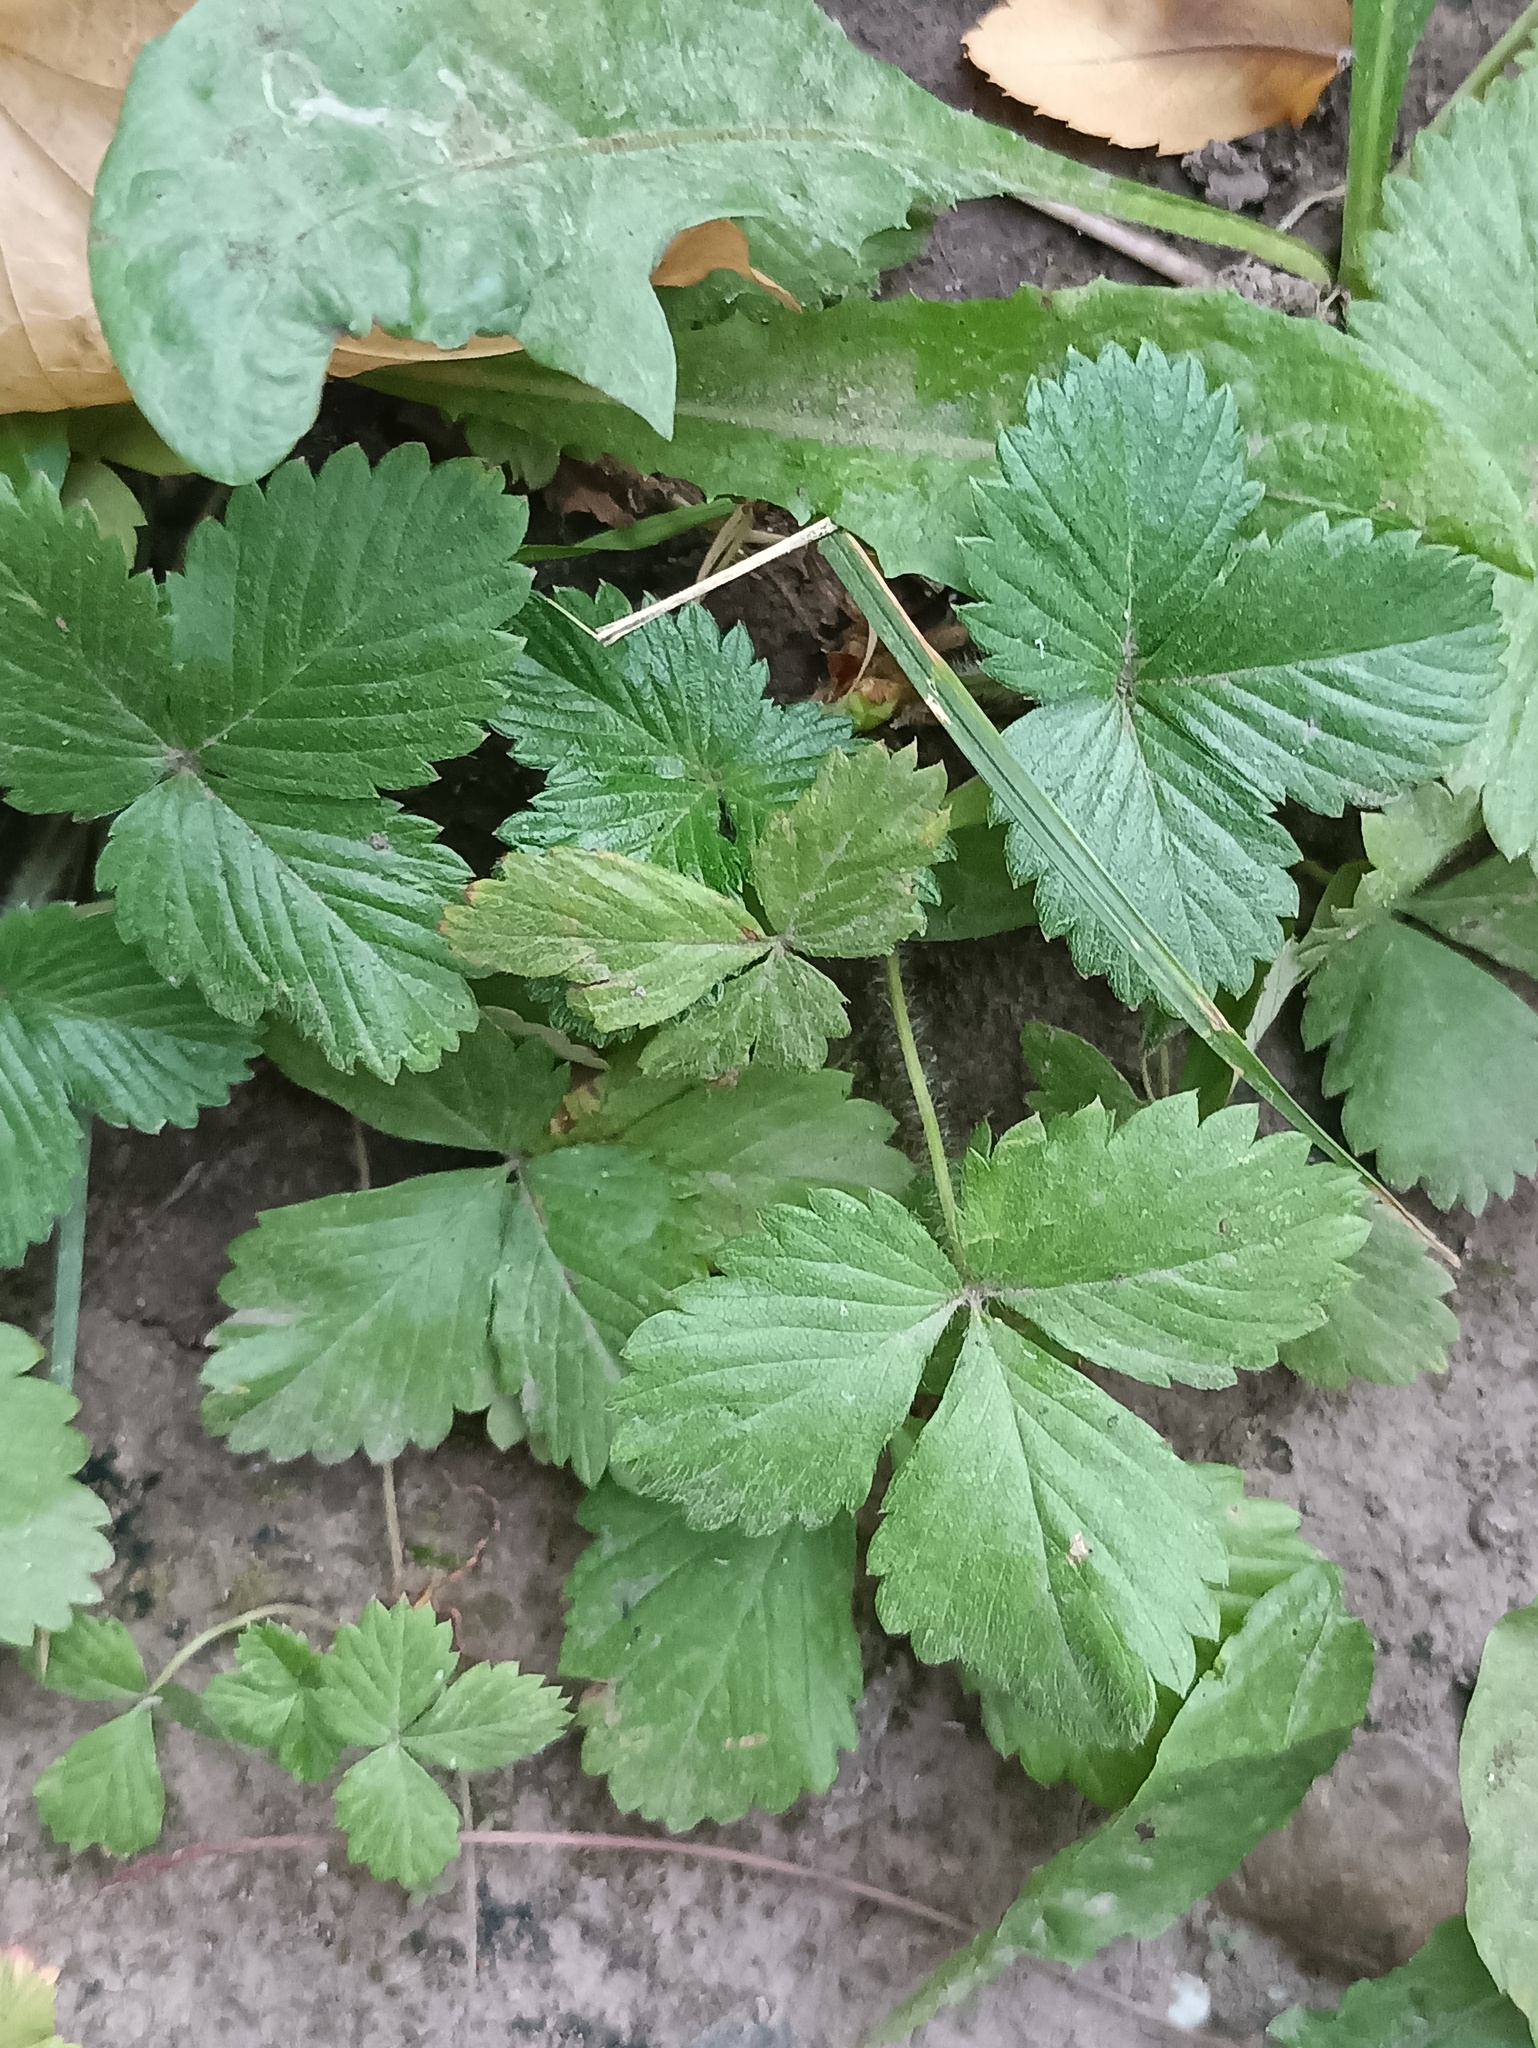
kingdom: Plantae
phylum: Tracheophyta
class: Magnoliopsida
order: Rosales
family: Rosaceae
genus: Fragaria
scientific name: Fragaria vesca
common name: Wild strawberry
